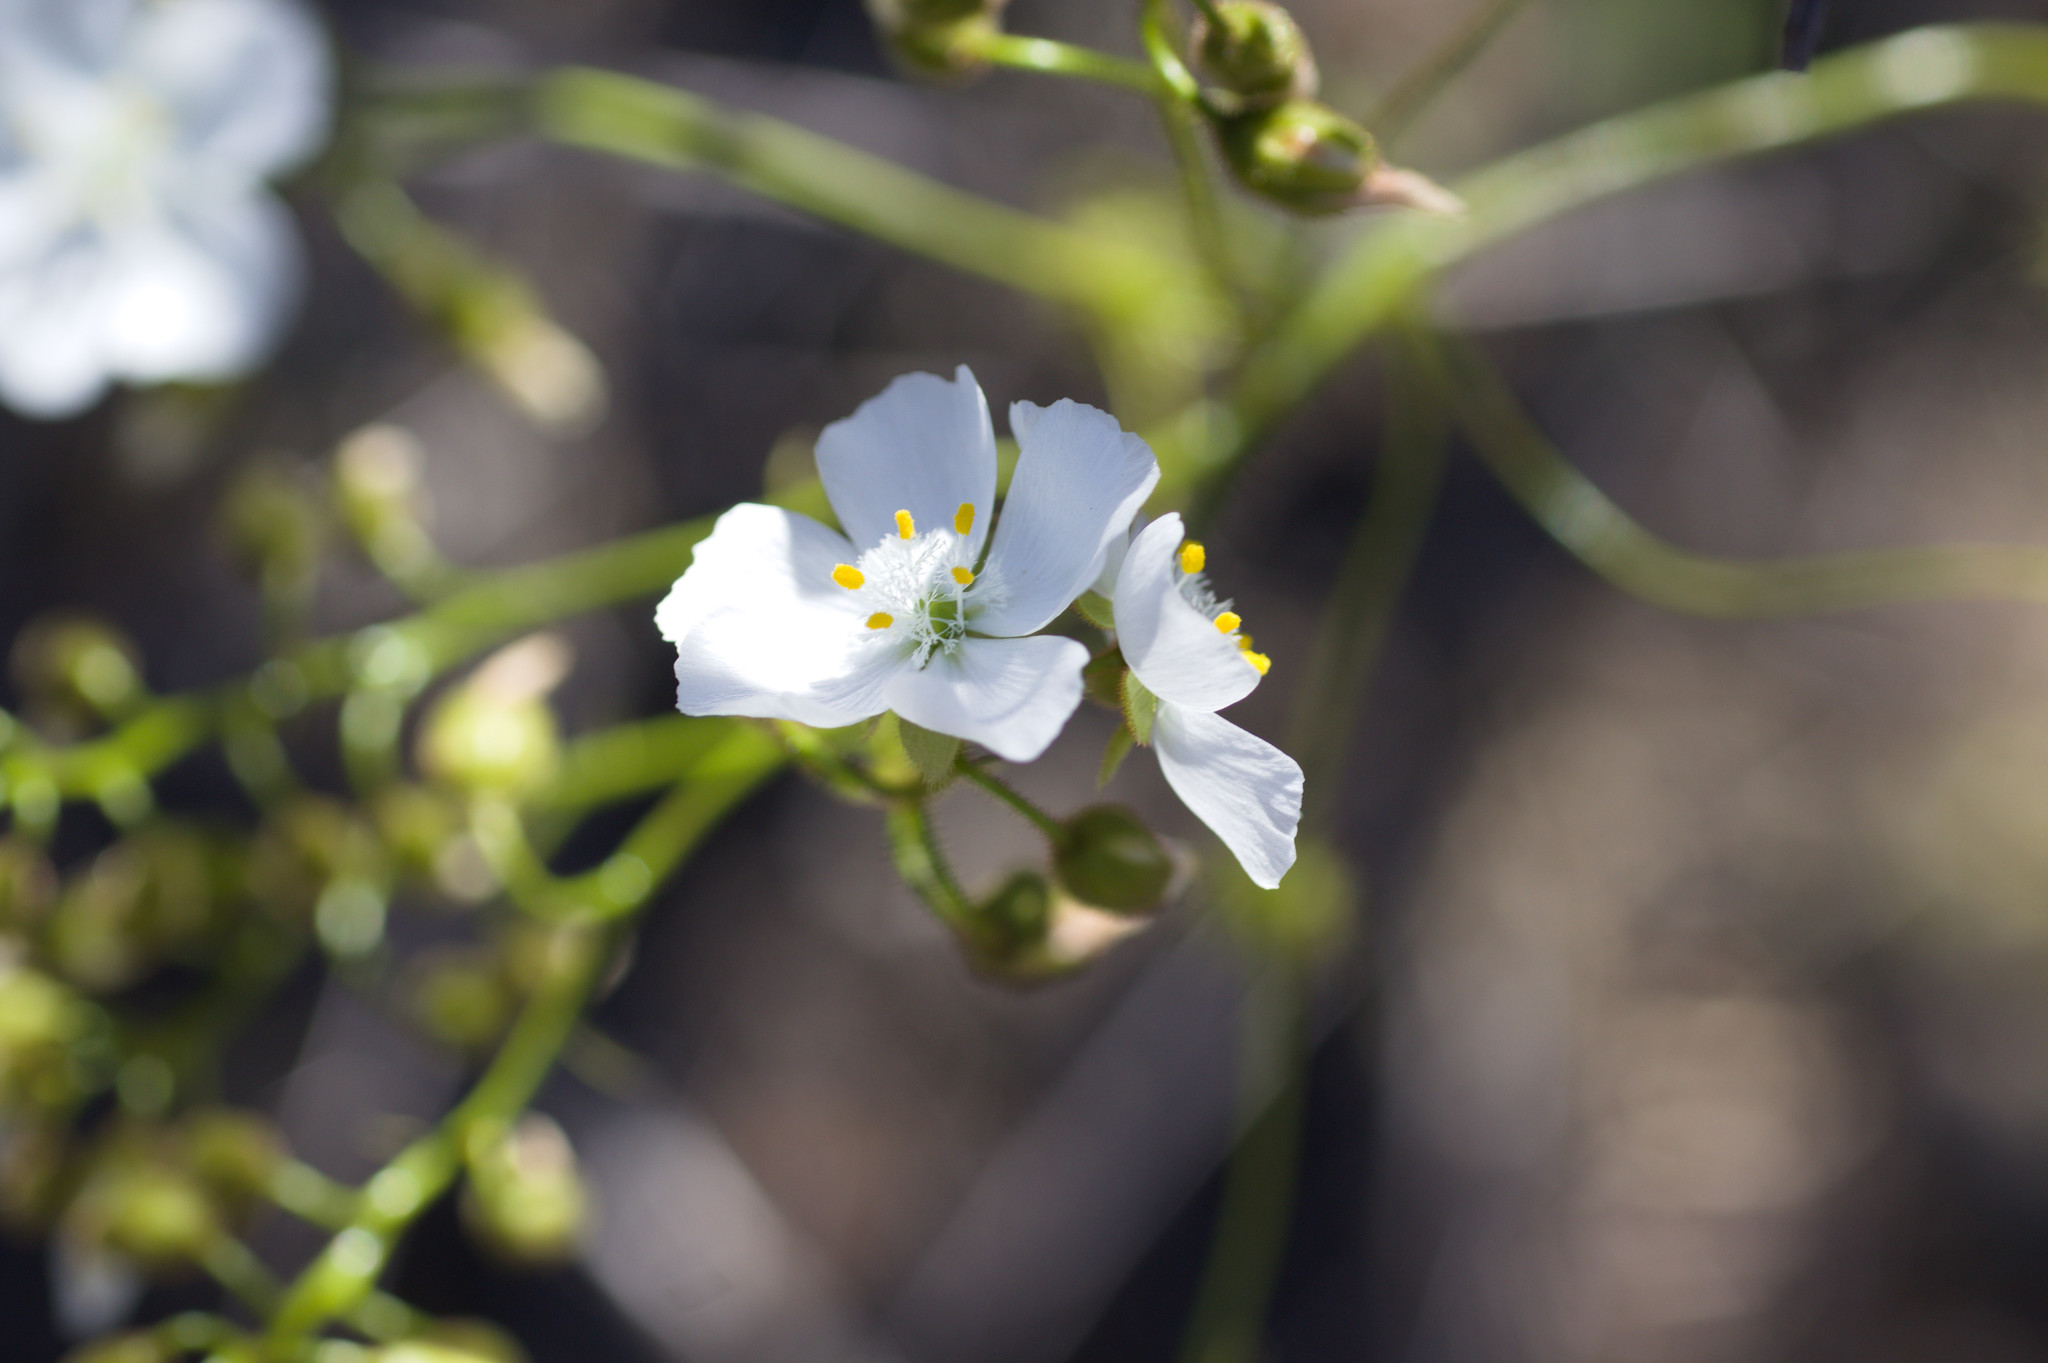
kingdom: Plantae
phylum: Tracheophyta
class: Magnoliopsida
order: Caryophyllales
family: Droseraceae
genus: Drosera
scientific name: Drosera macrantha
